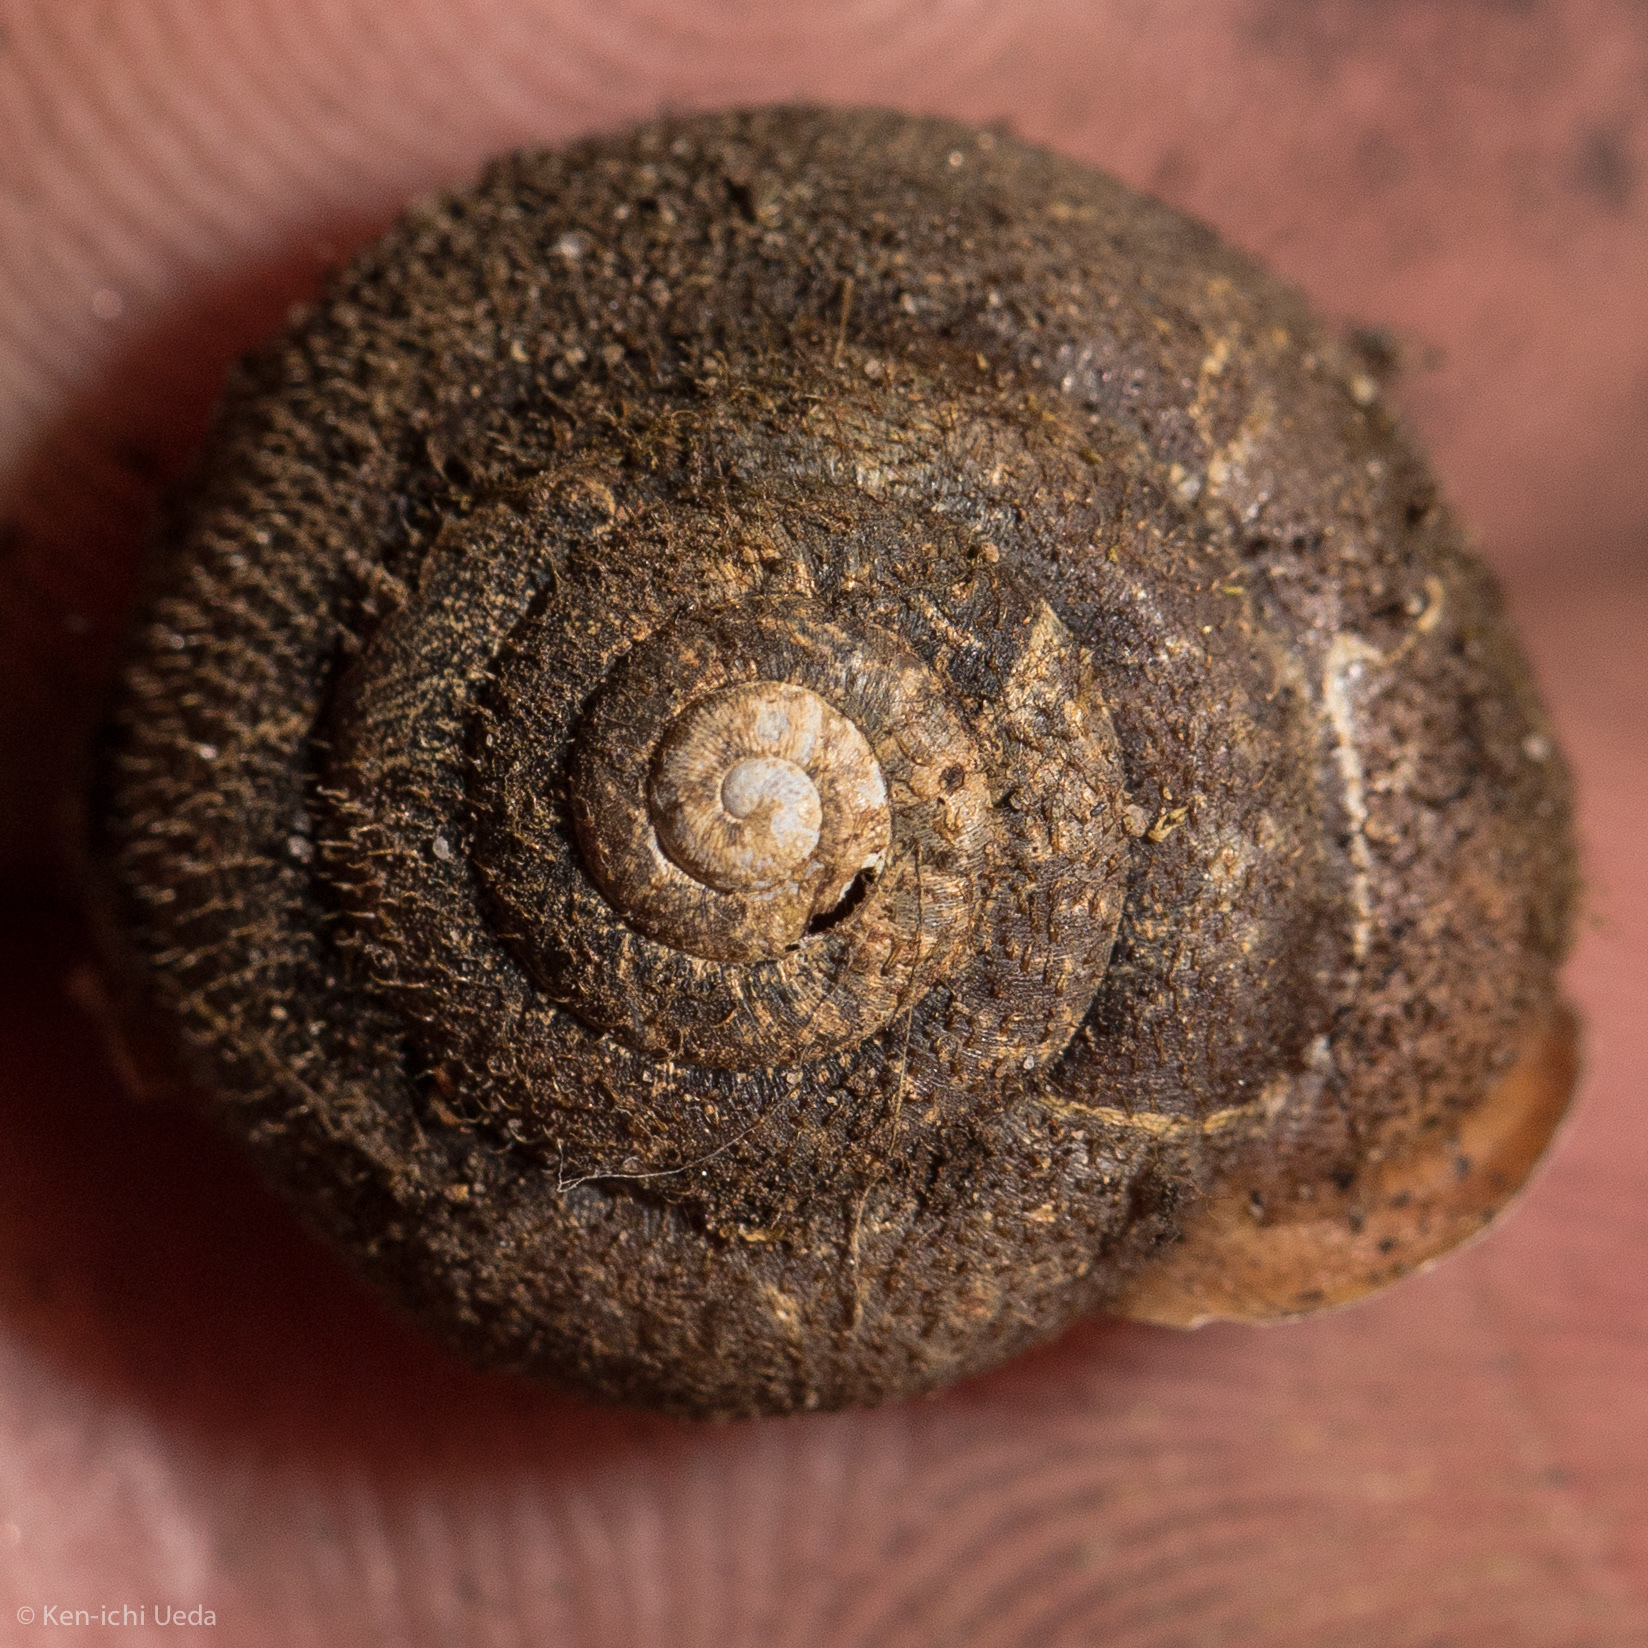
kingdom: Animalia
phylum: Mollusca
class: Gastropoda
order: Stylommatophora
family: Polygyridae
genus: Vespericola
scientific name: Vespericola armiger
